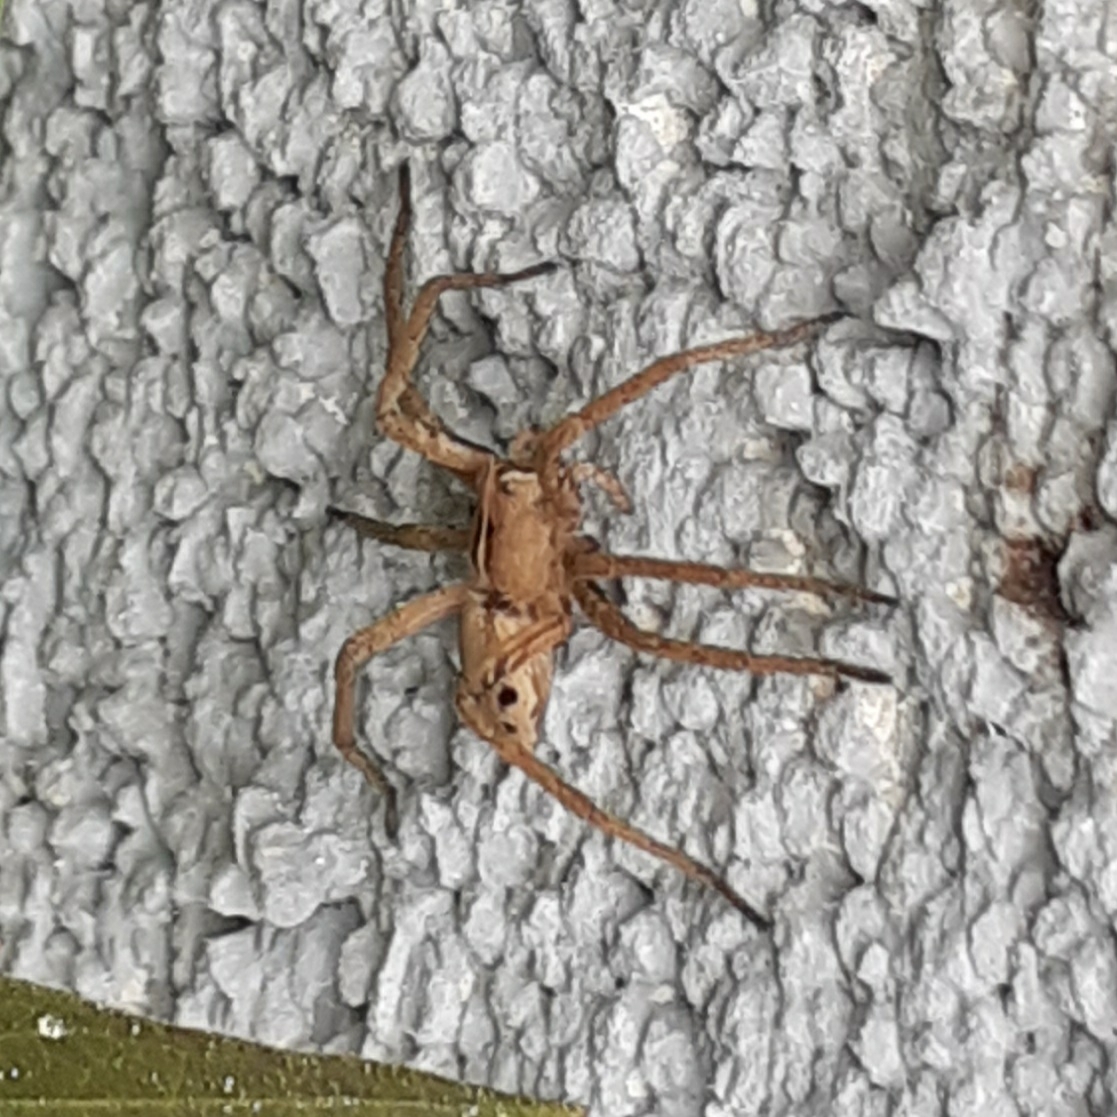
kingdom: Animalia
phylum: Arthropoda
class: Arachnida
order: Araneae
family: Pisauridae
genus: Pisaura
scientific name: Pisaura mirabilis
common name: Tent spider
